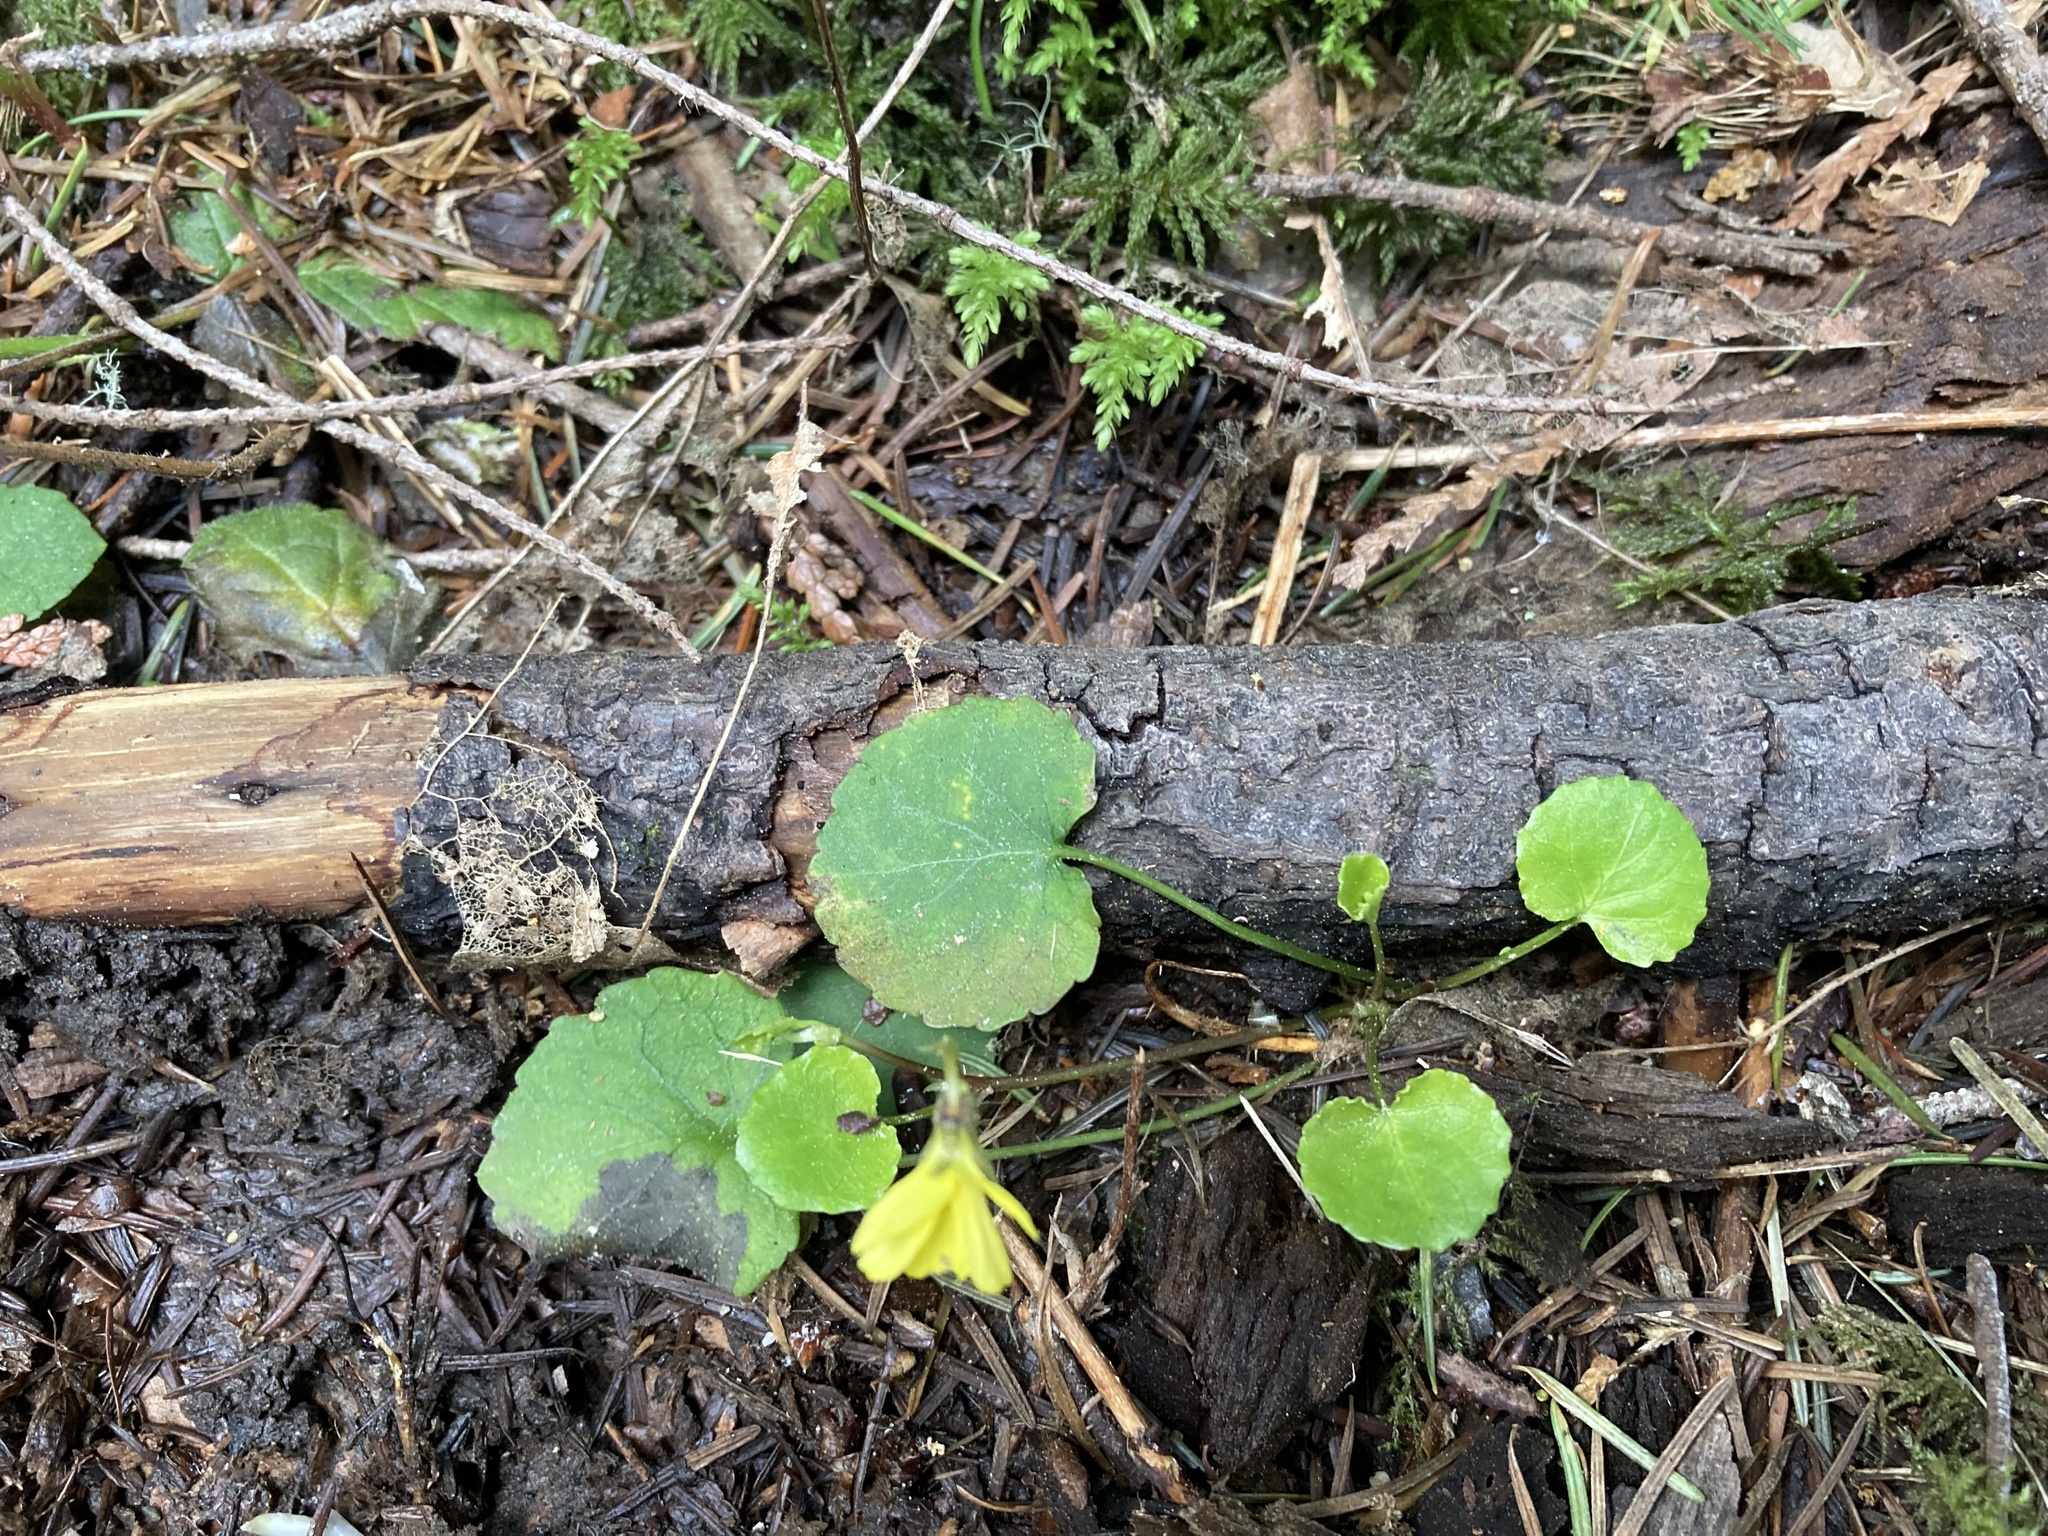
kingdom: Plantae
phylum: Tracheophyta
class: Magnoliopsida
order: Malpighiales
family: Violaceae
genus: Viola
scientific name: Viola sempervirens
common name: Evergreen violet
